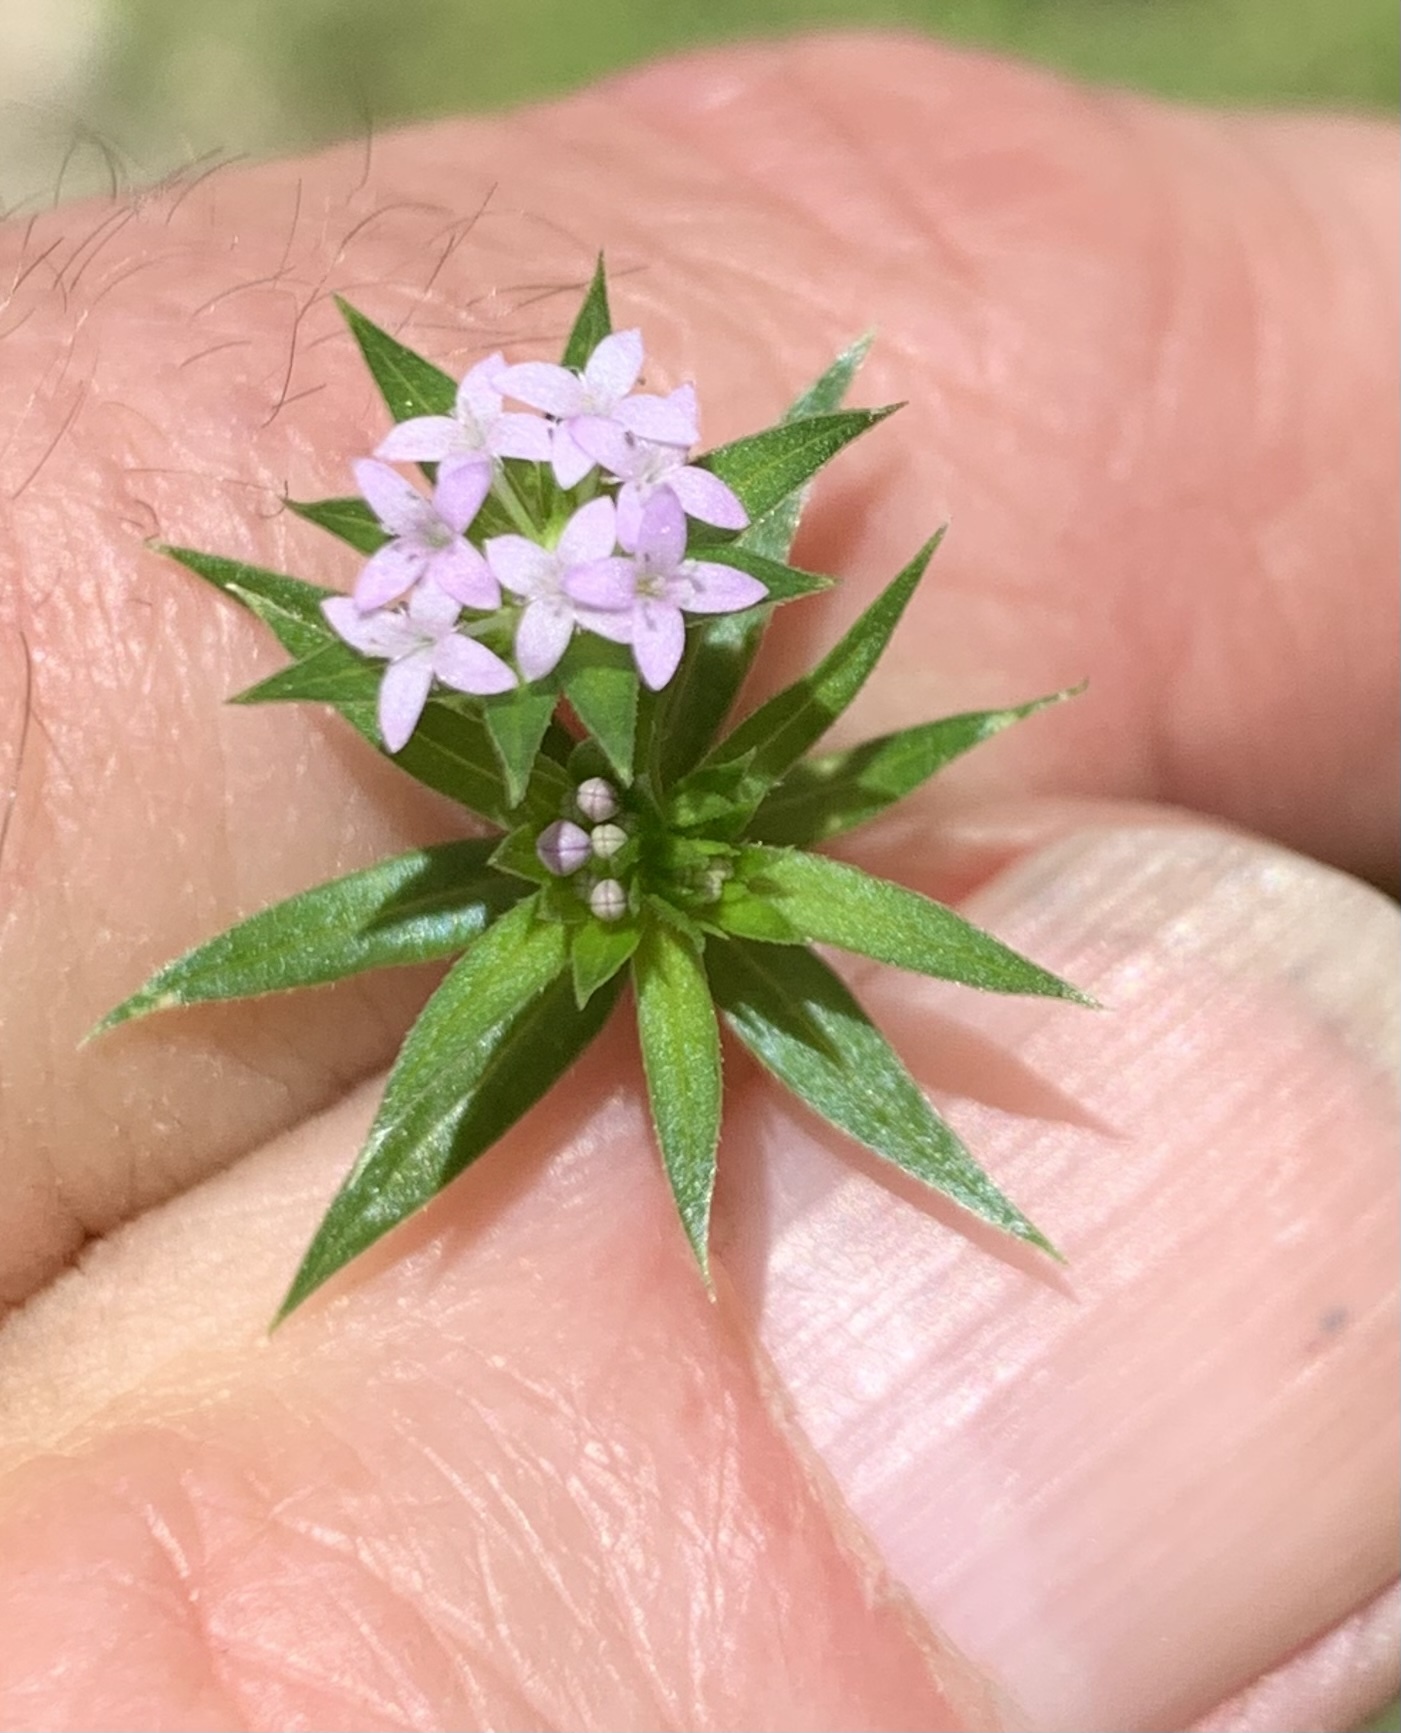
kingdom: Plantae
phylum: Tracheophyta
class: Magnoliopsida
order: Gentianales
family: Rubiaceae
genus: Sherardia
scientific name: Sherardia arvensis
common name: Field madder
